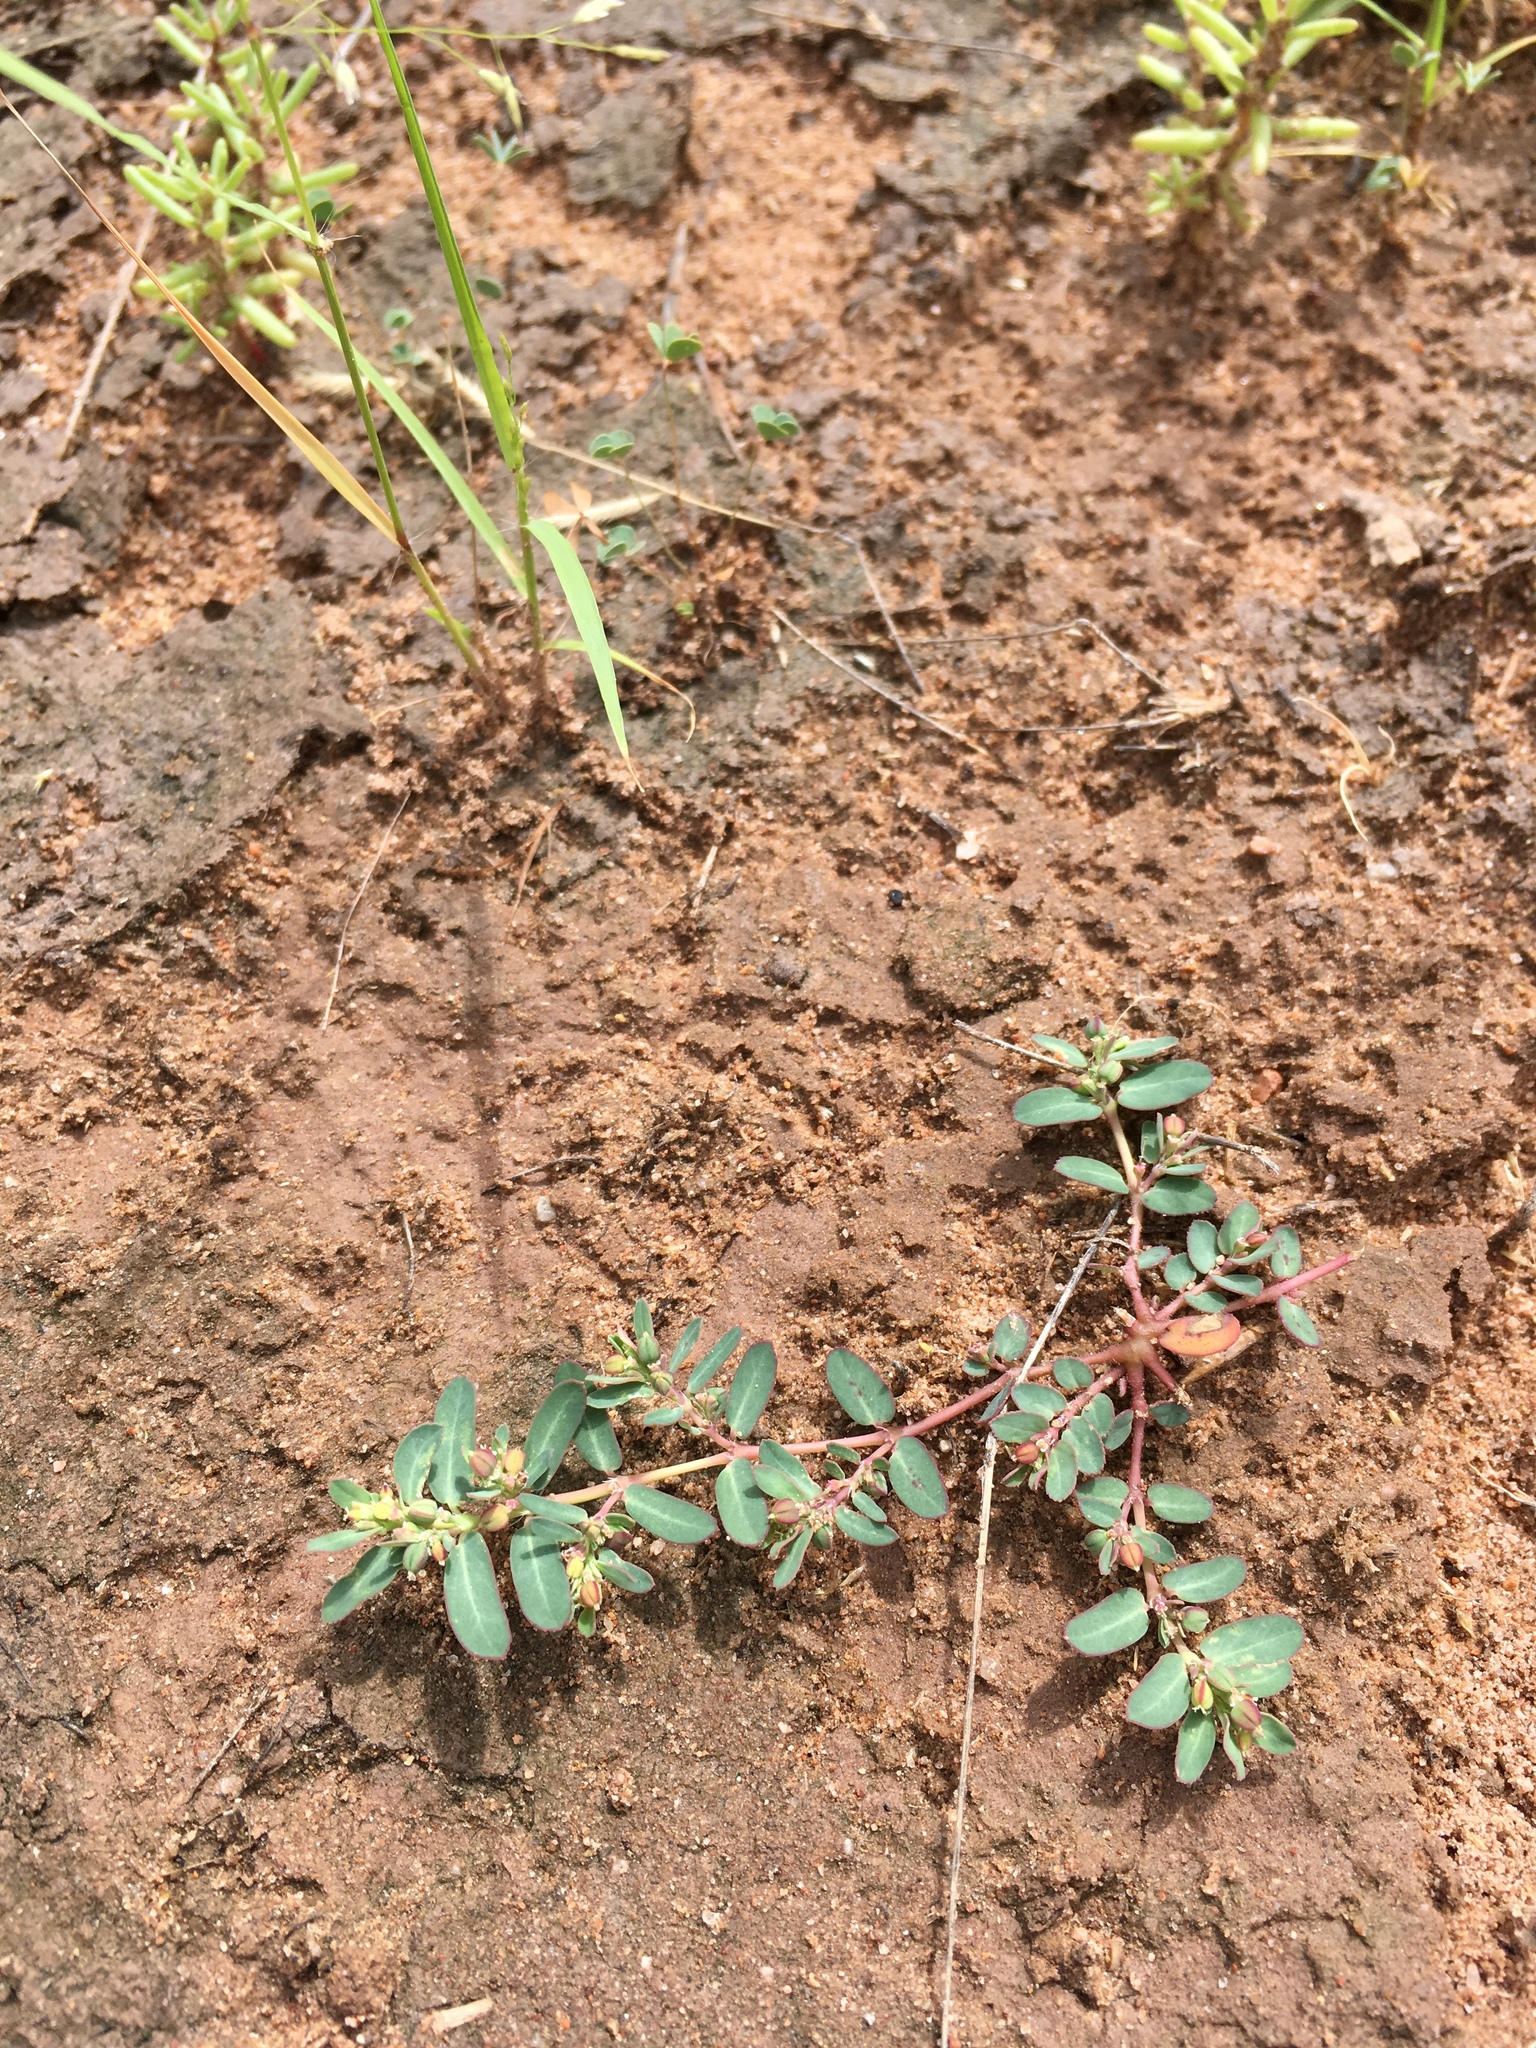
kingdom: Plantae
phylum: Tracheophyta
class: Magnoliopsida
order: Malpighiales
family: Euphorbiaceae
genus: Euphorbia
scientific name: Euphorbia abramsiana
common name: Abram's spurge
